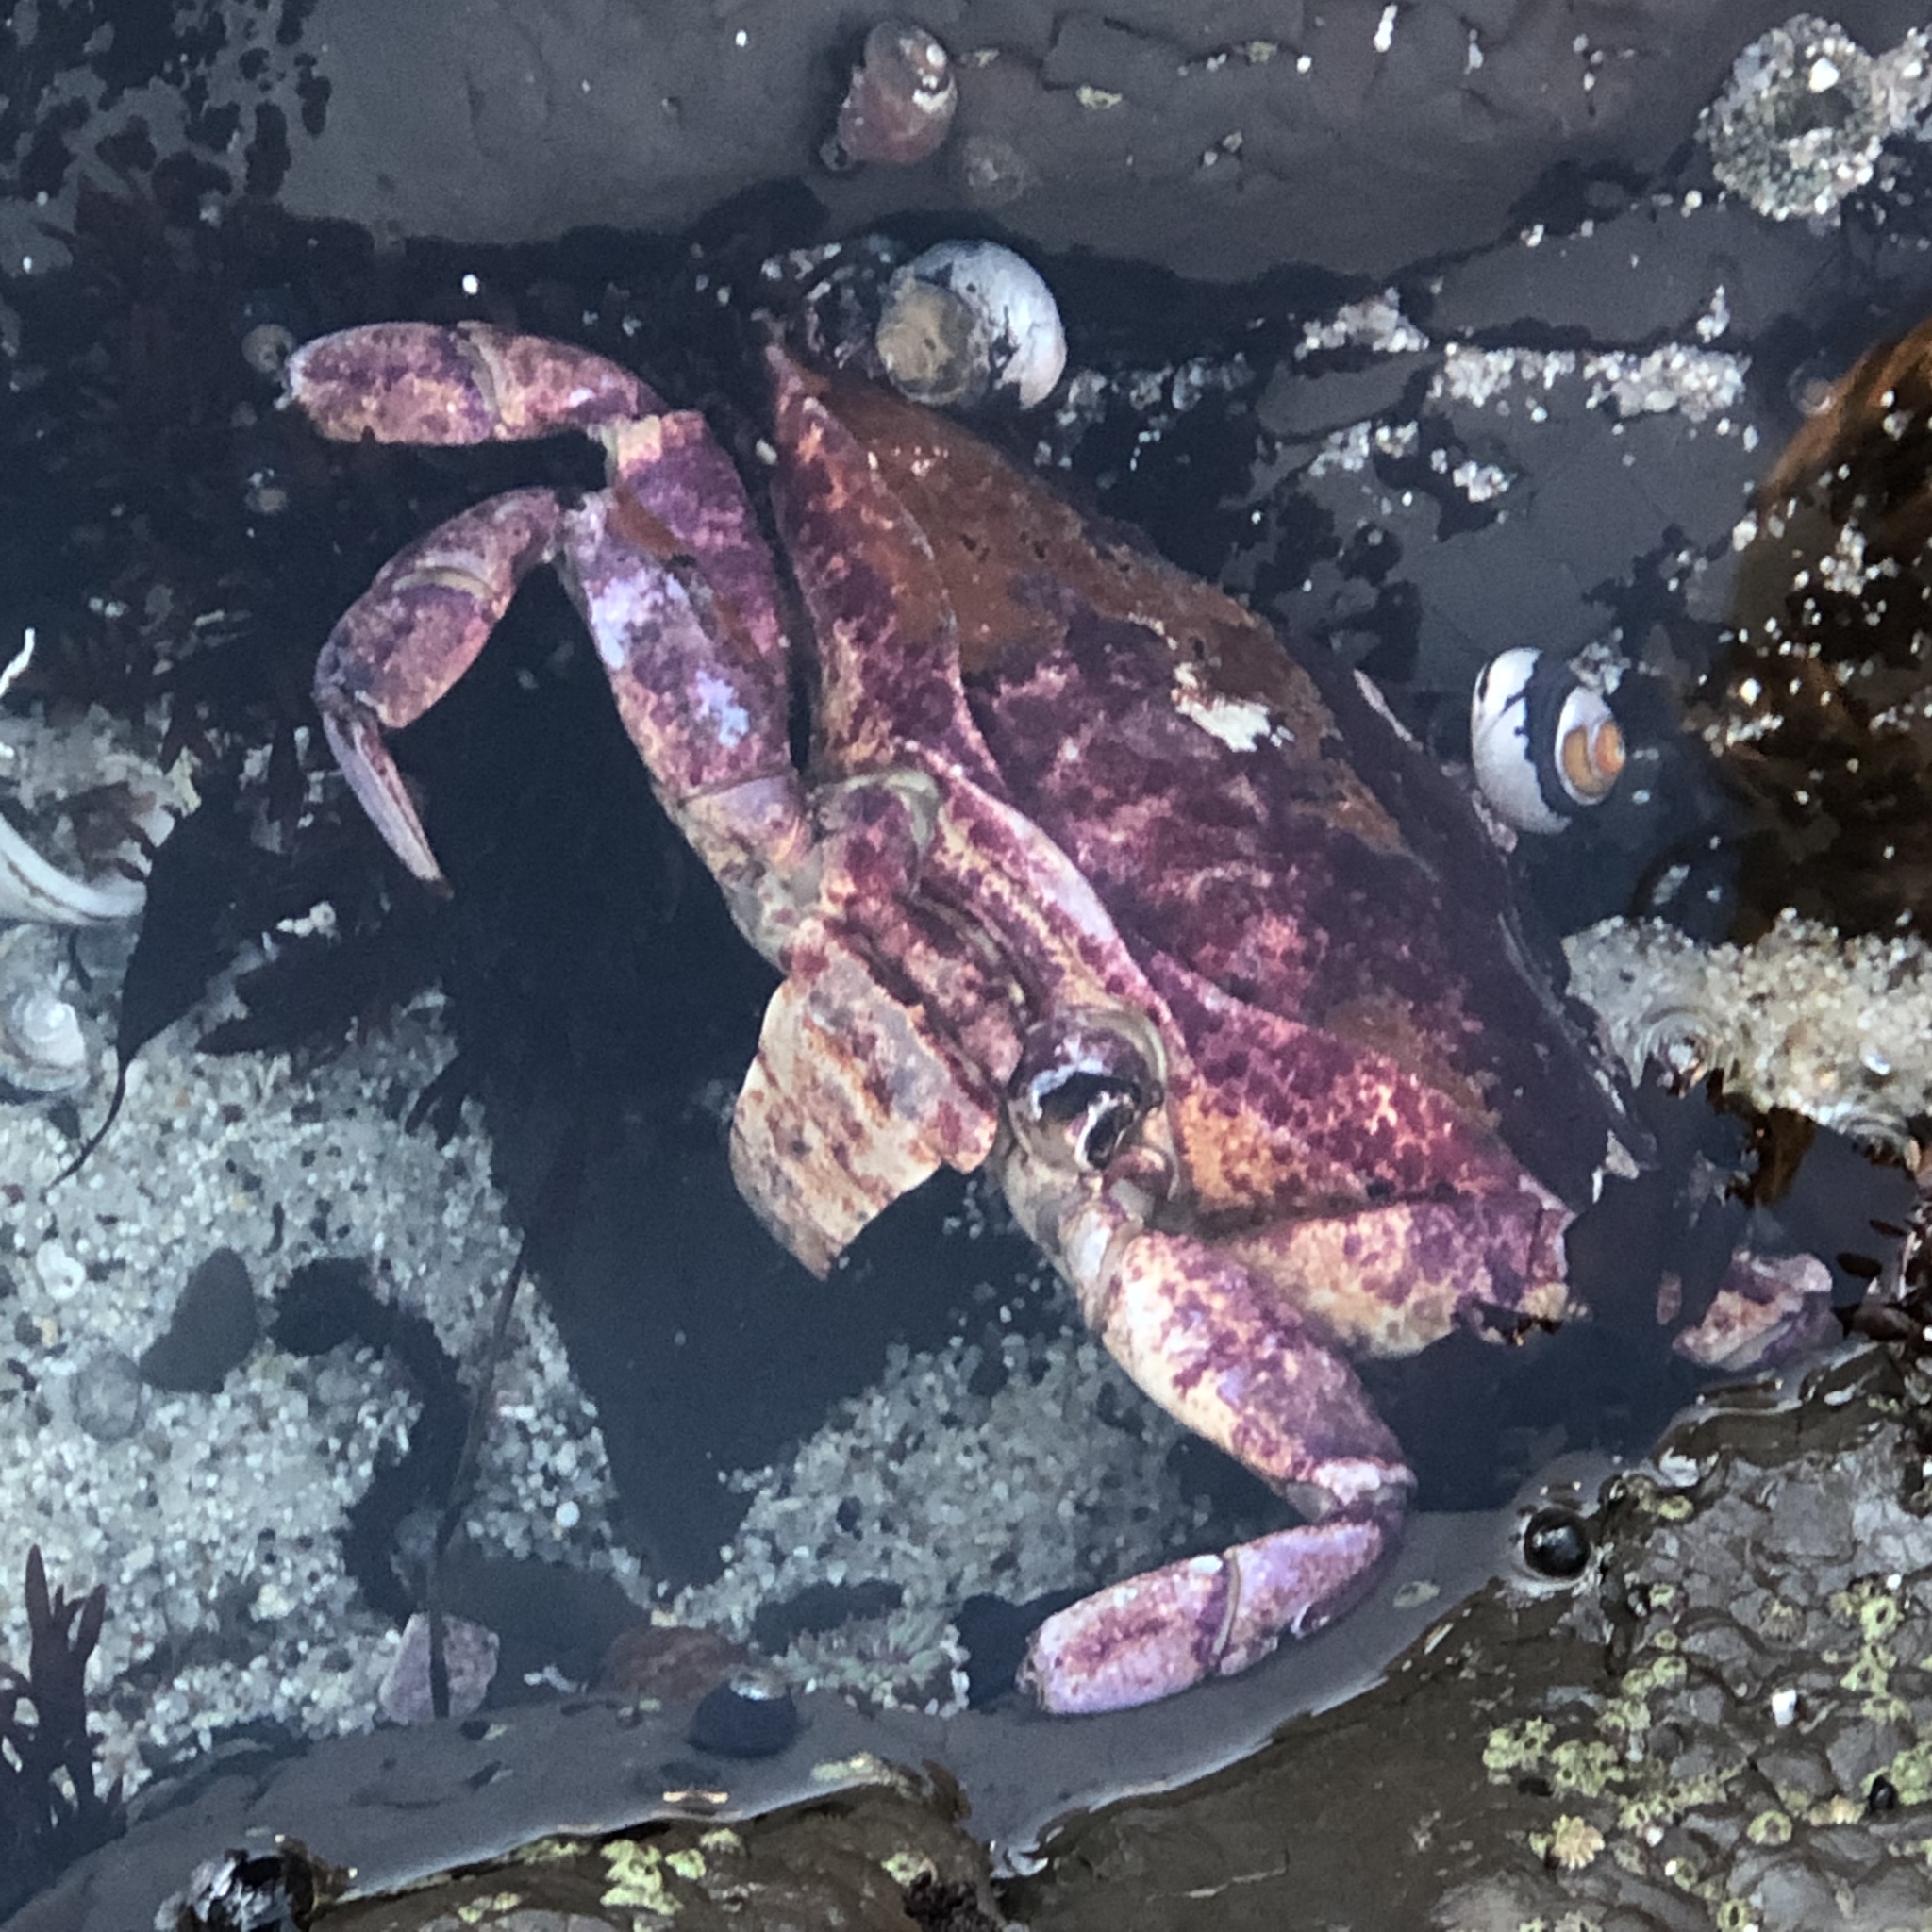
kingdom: Animalia
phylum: Arthropoda
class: Malacostraca
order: Decapoda
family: Cancridae
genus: Cancer
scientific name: Cancer productus
